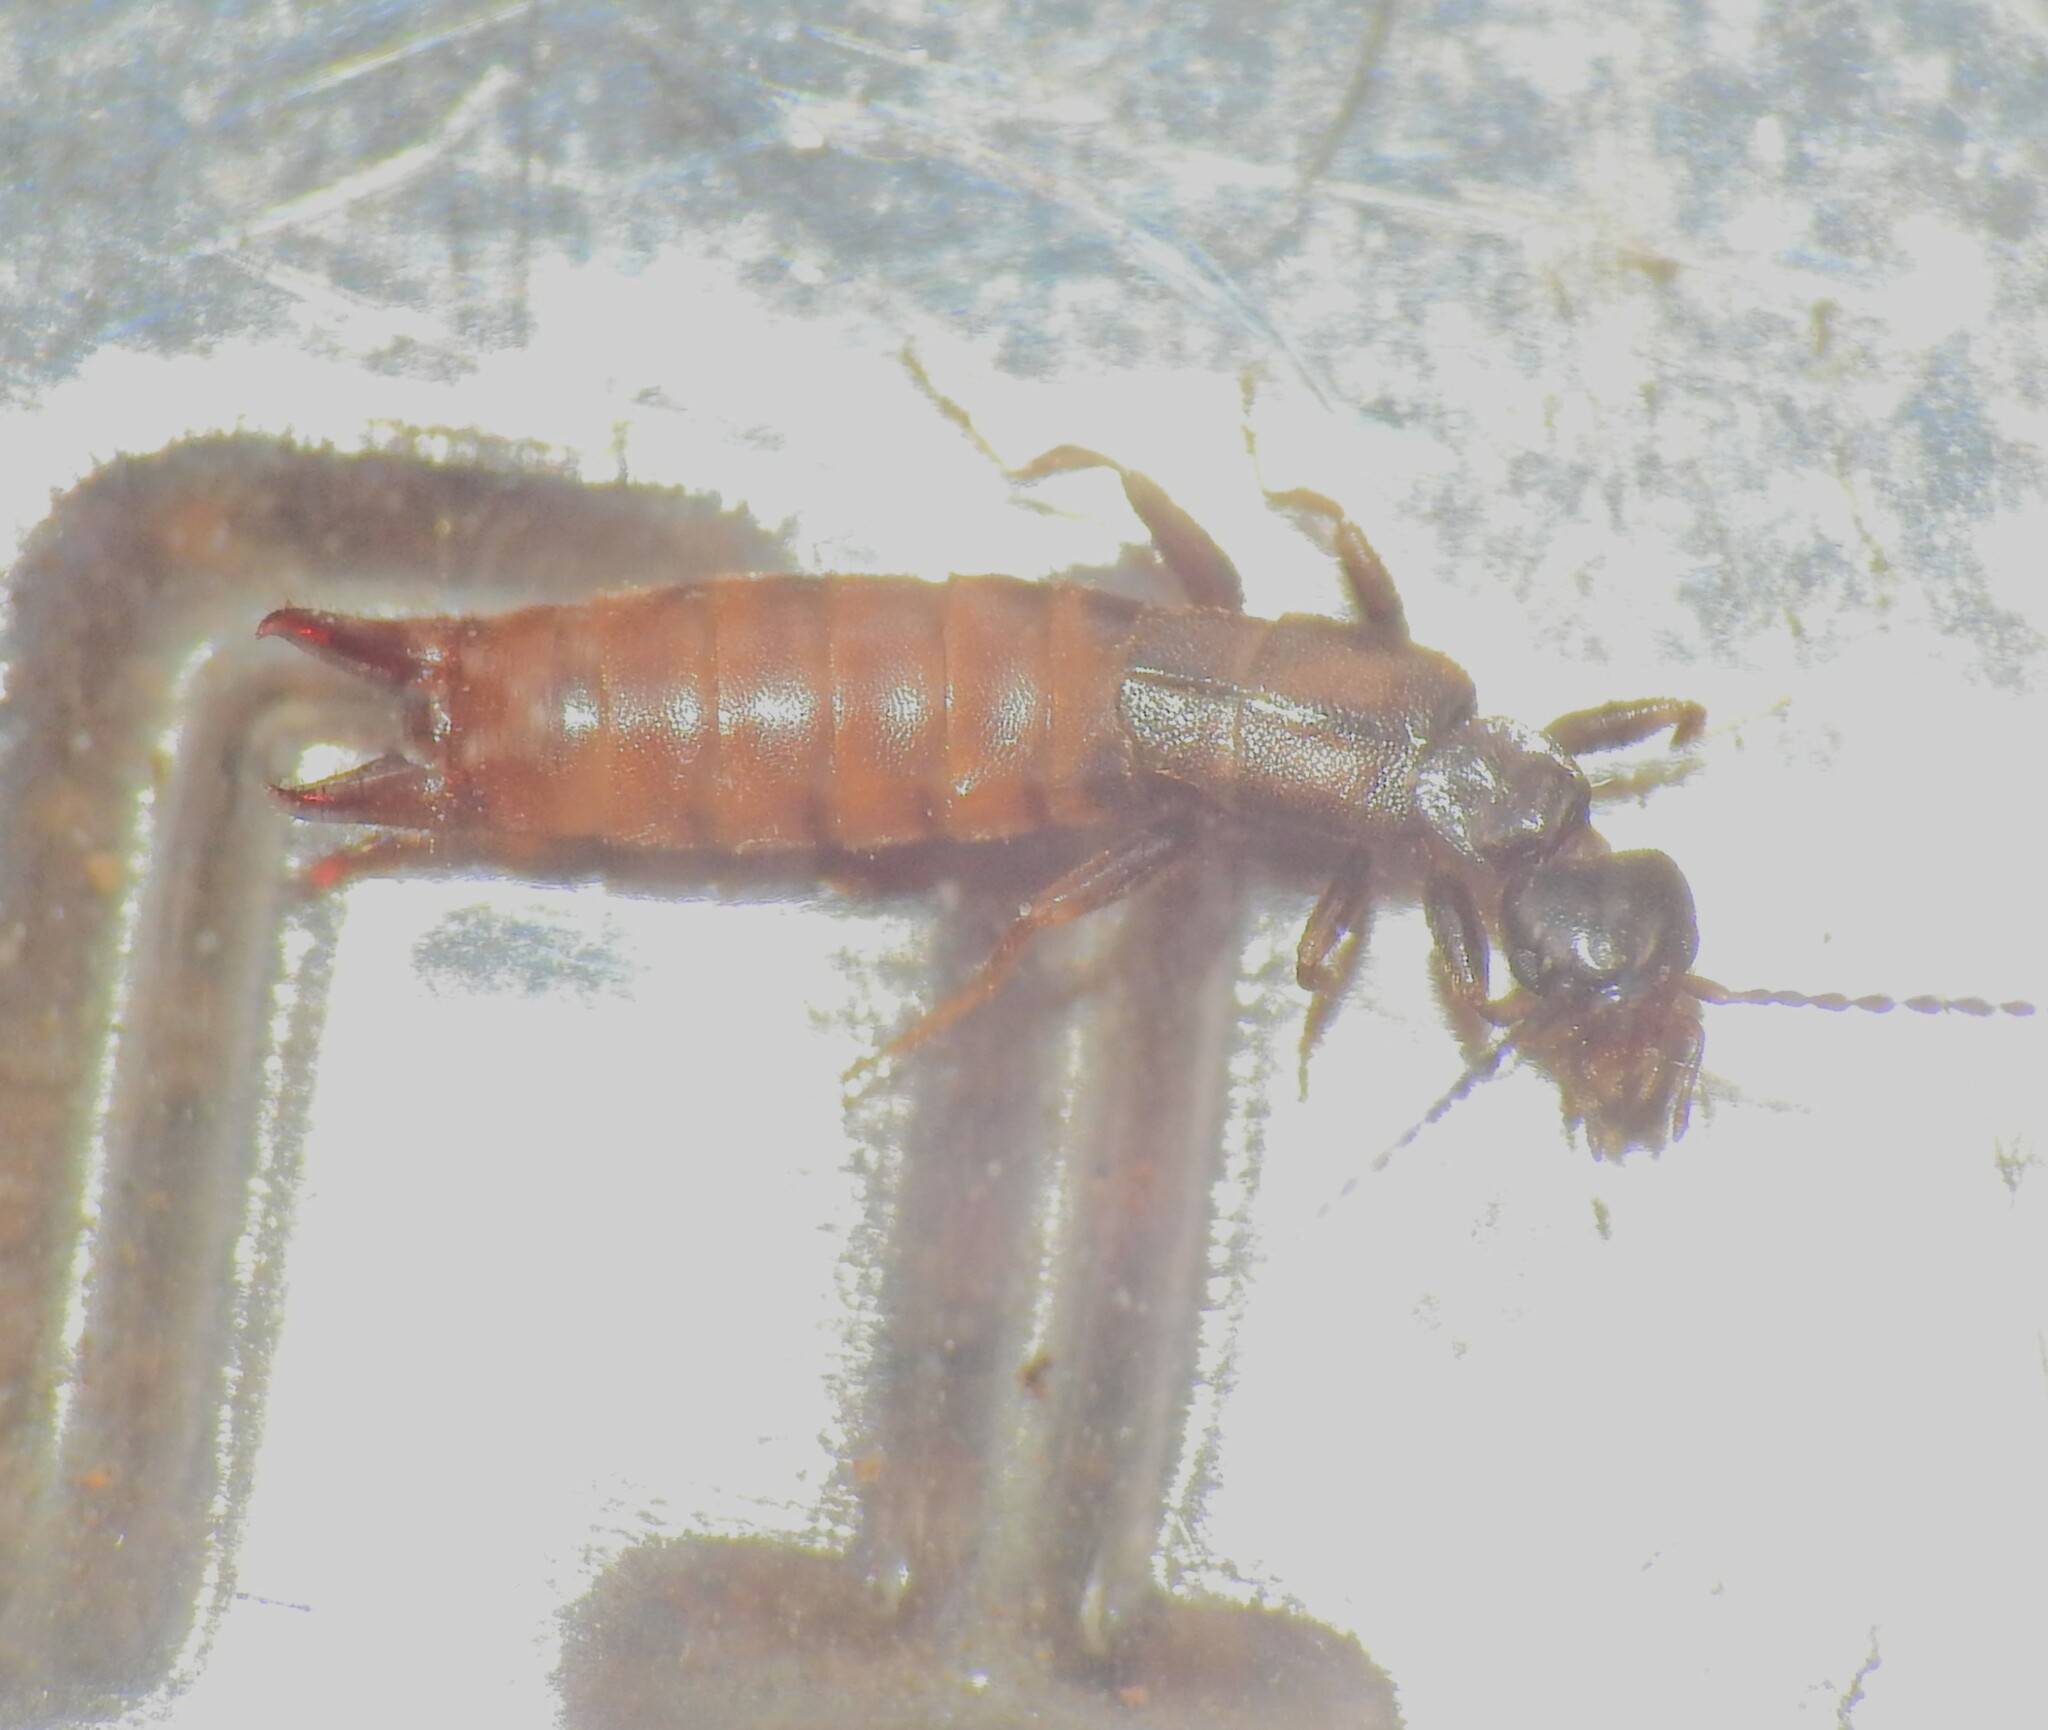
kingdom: Animalia
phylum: Arthropoda
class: Insecta
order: Dermaptera
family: Spongiphoridae
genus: Spirolabia
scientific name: Spirolabia pilicornis
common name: Earwig
